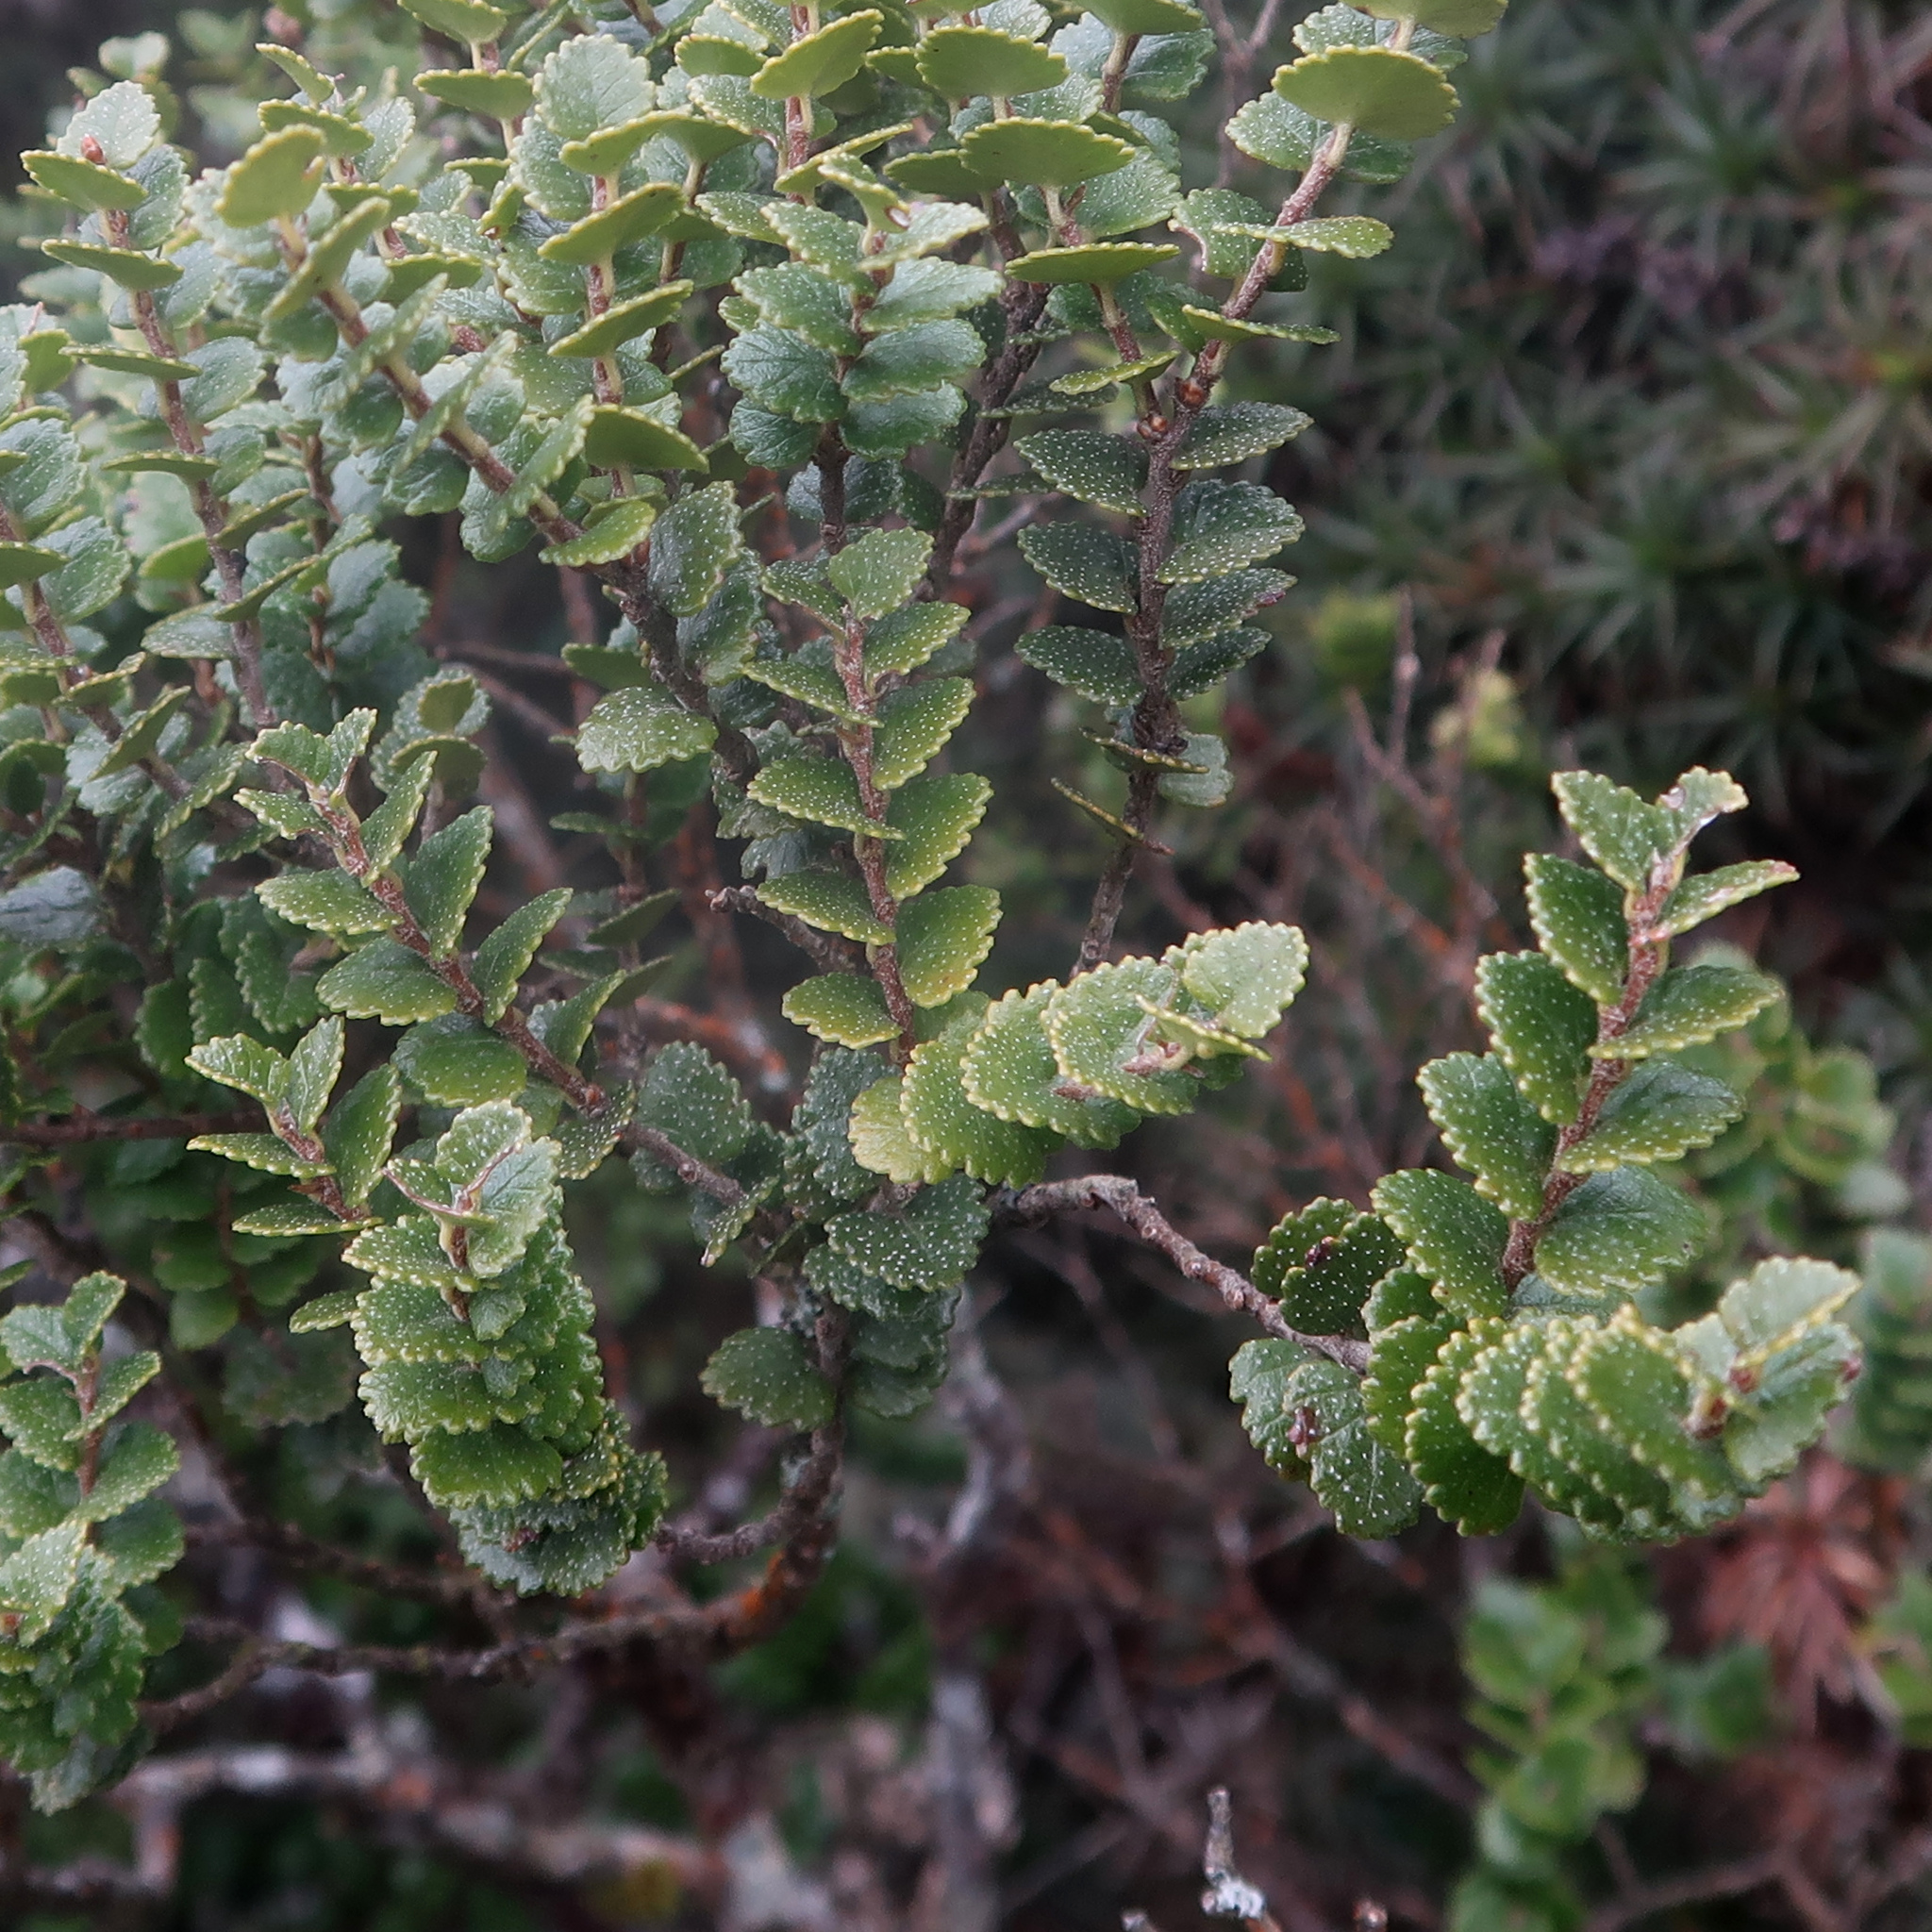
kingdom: Plantae
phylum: Tracheophyta
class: Magnoliopsida
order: Fagales
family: Nothofagaceae
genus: Nothofagus
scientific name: Nothofagus cunninghamii
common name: Myrtle beech
